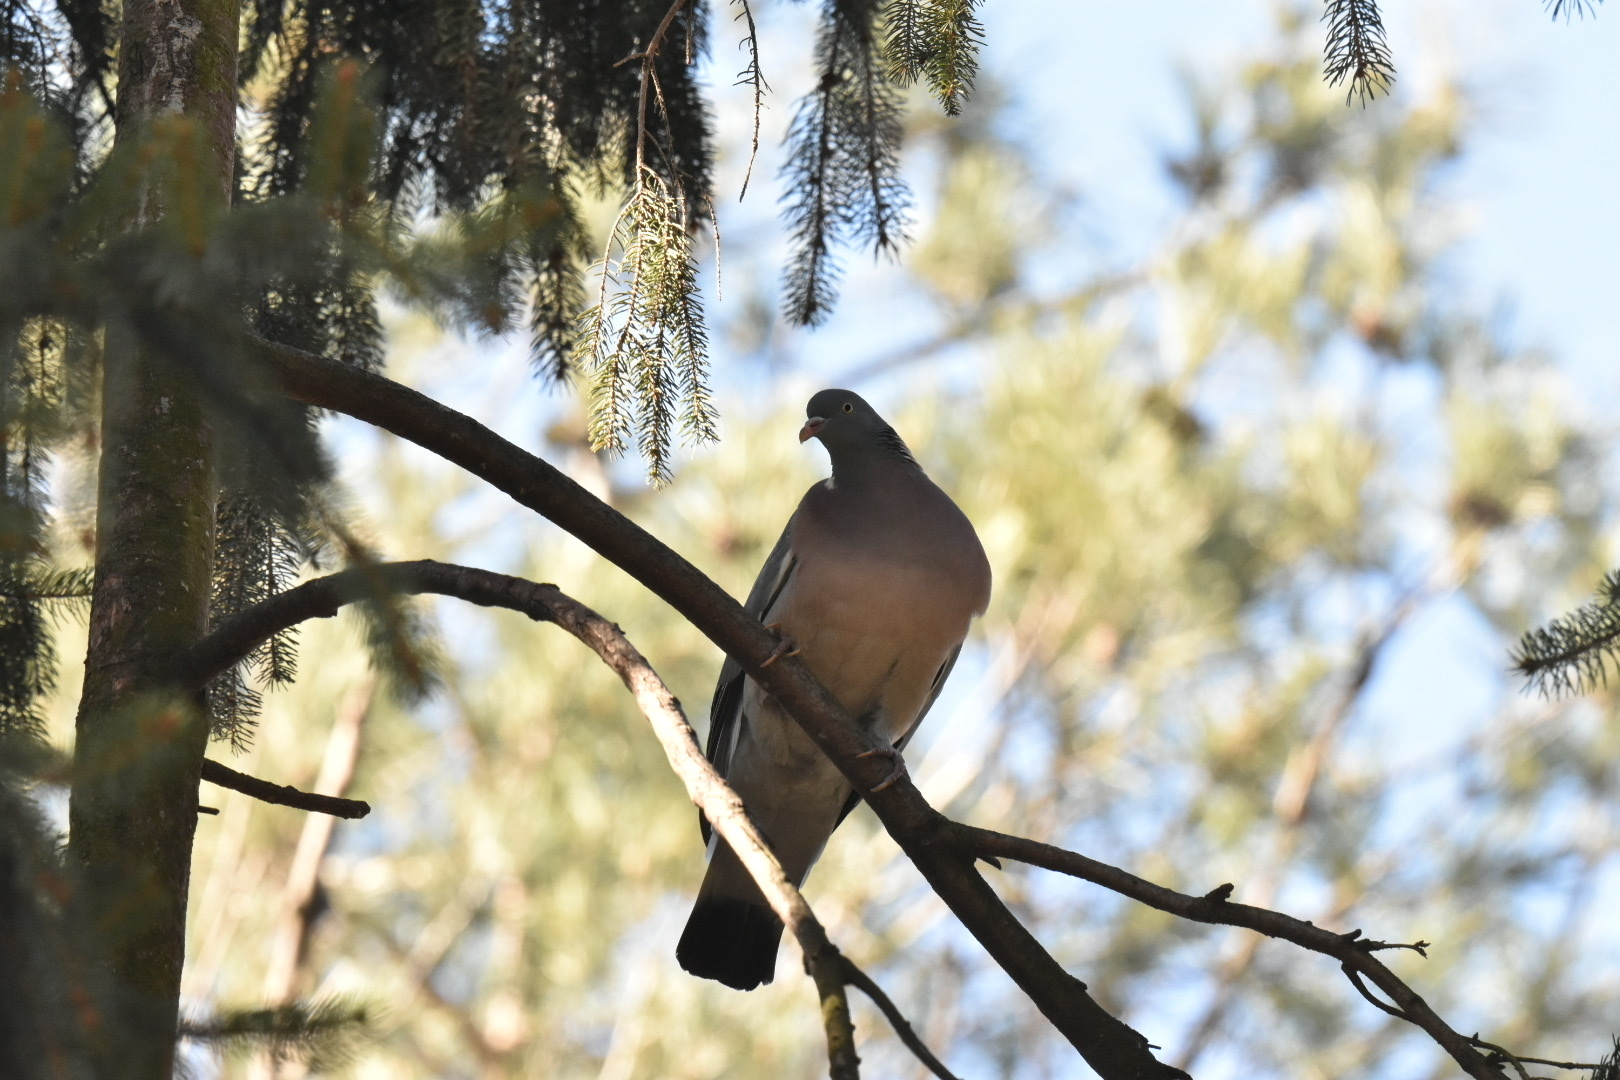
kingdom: Animalia
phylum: Chordata
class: Aves
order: Columbiformes
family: Columbidae
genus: Columba
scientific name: Columba palumbus
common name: Common wood pigeon
